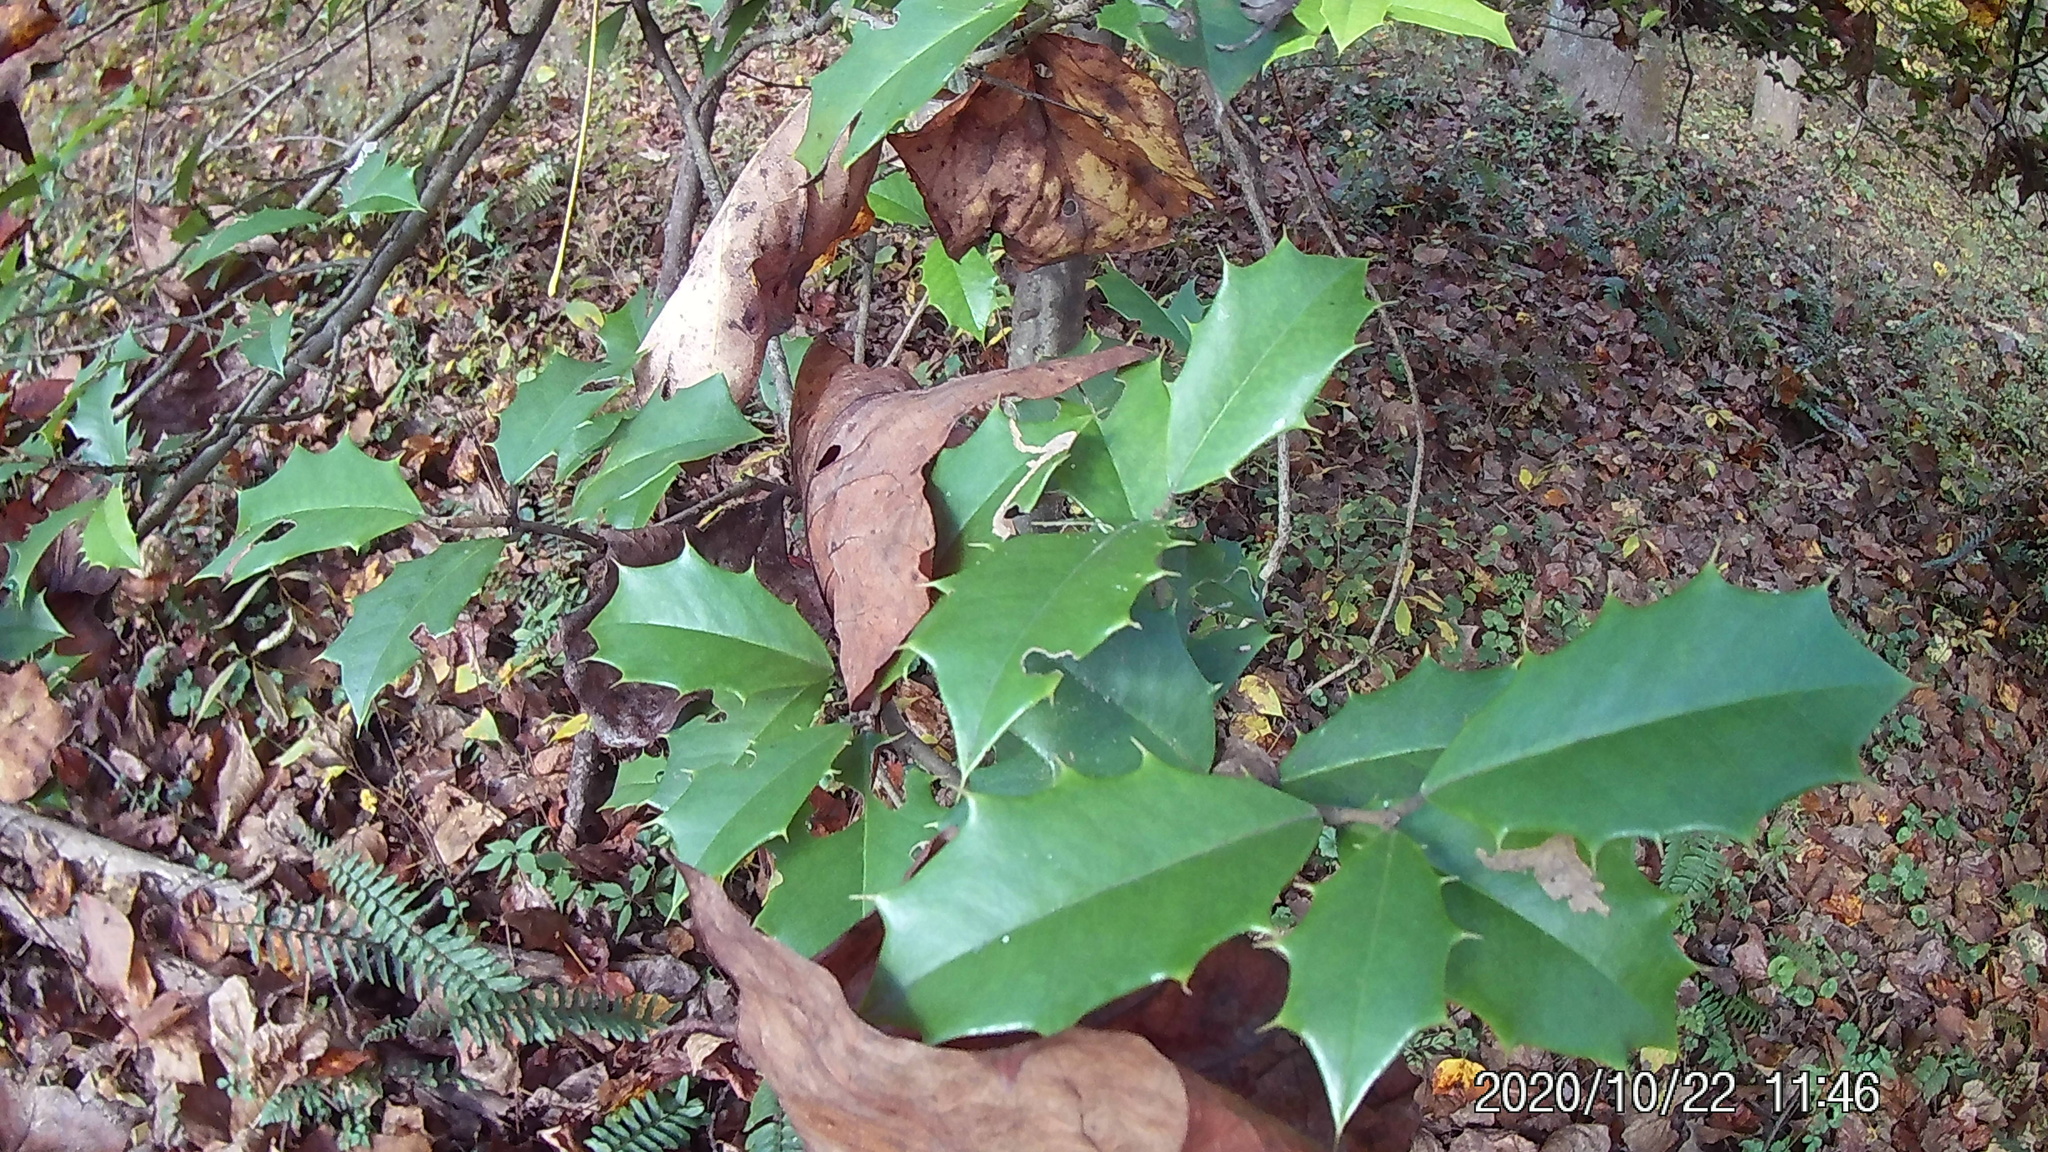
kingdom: Plantae
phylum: Tracheophyta
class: Magnoliopsida
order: Aquifoliales
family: Aquifoliaceae
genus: Ilex
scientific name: Ilex opaca
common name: American holly
